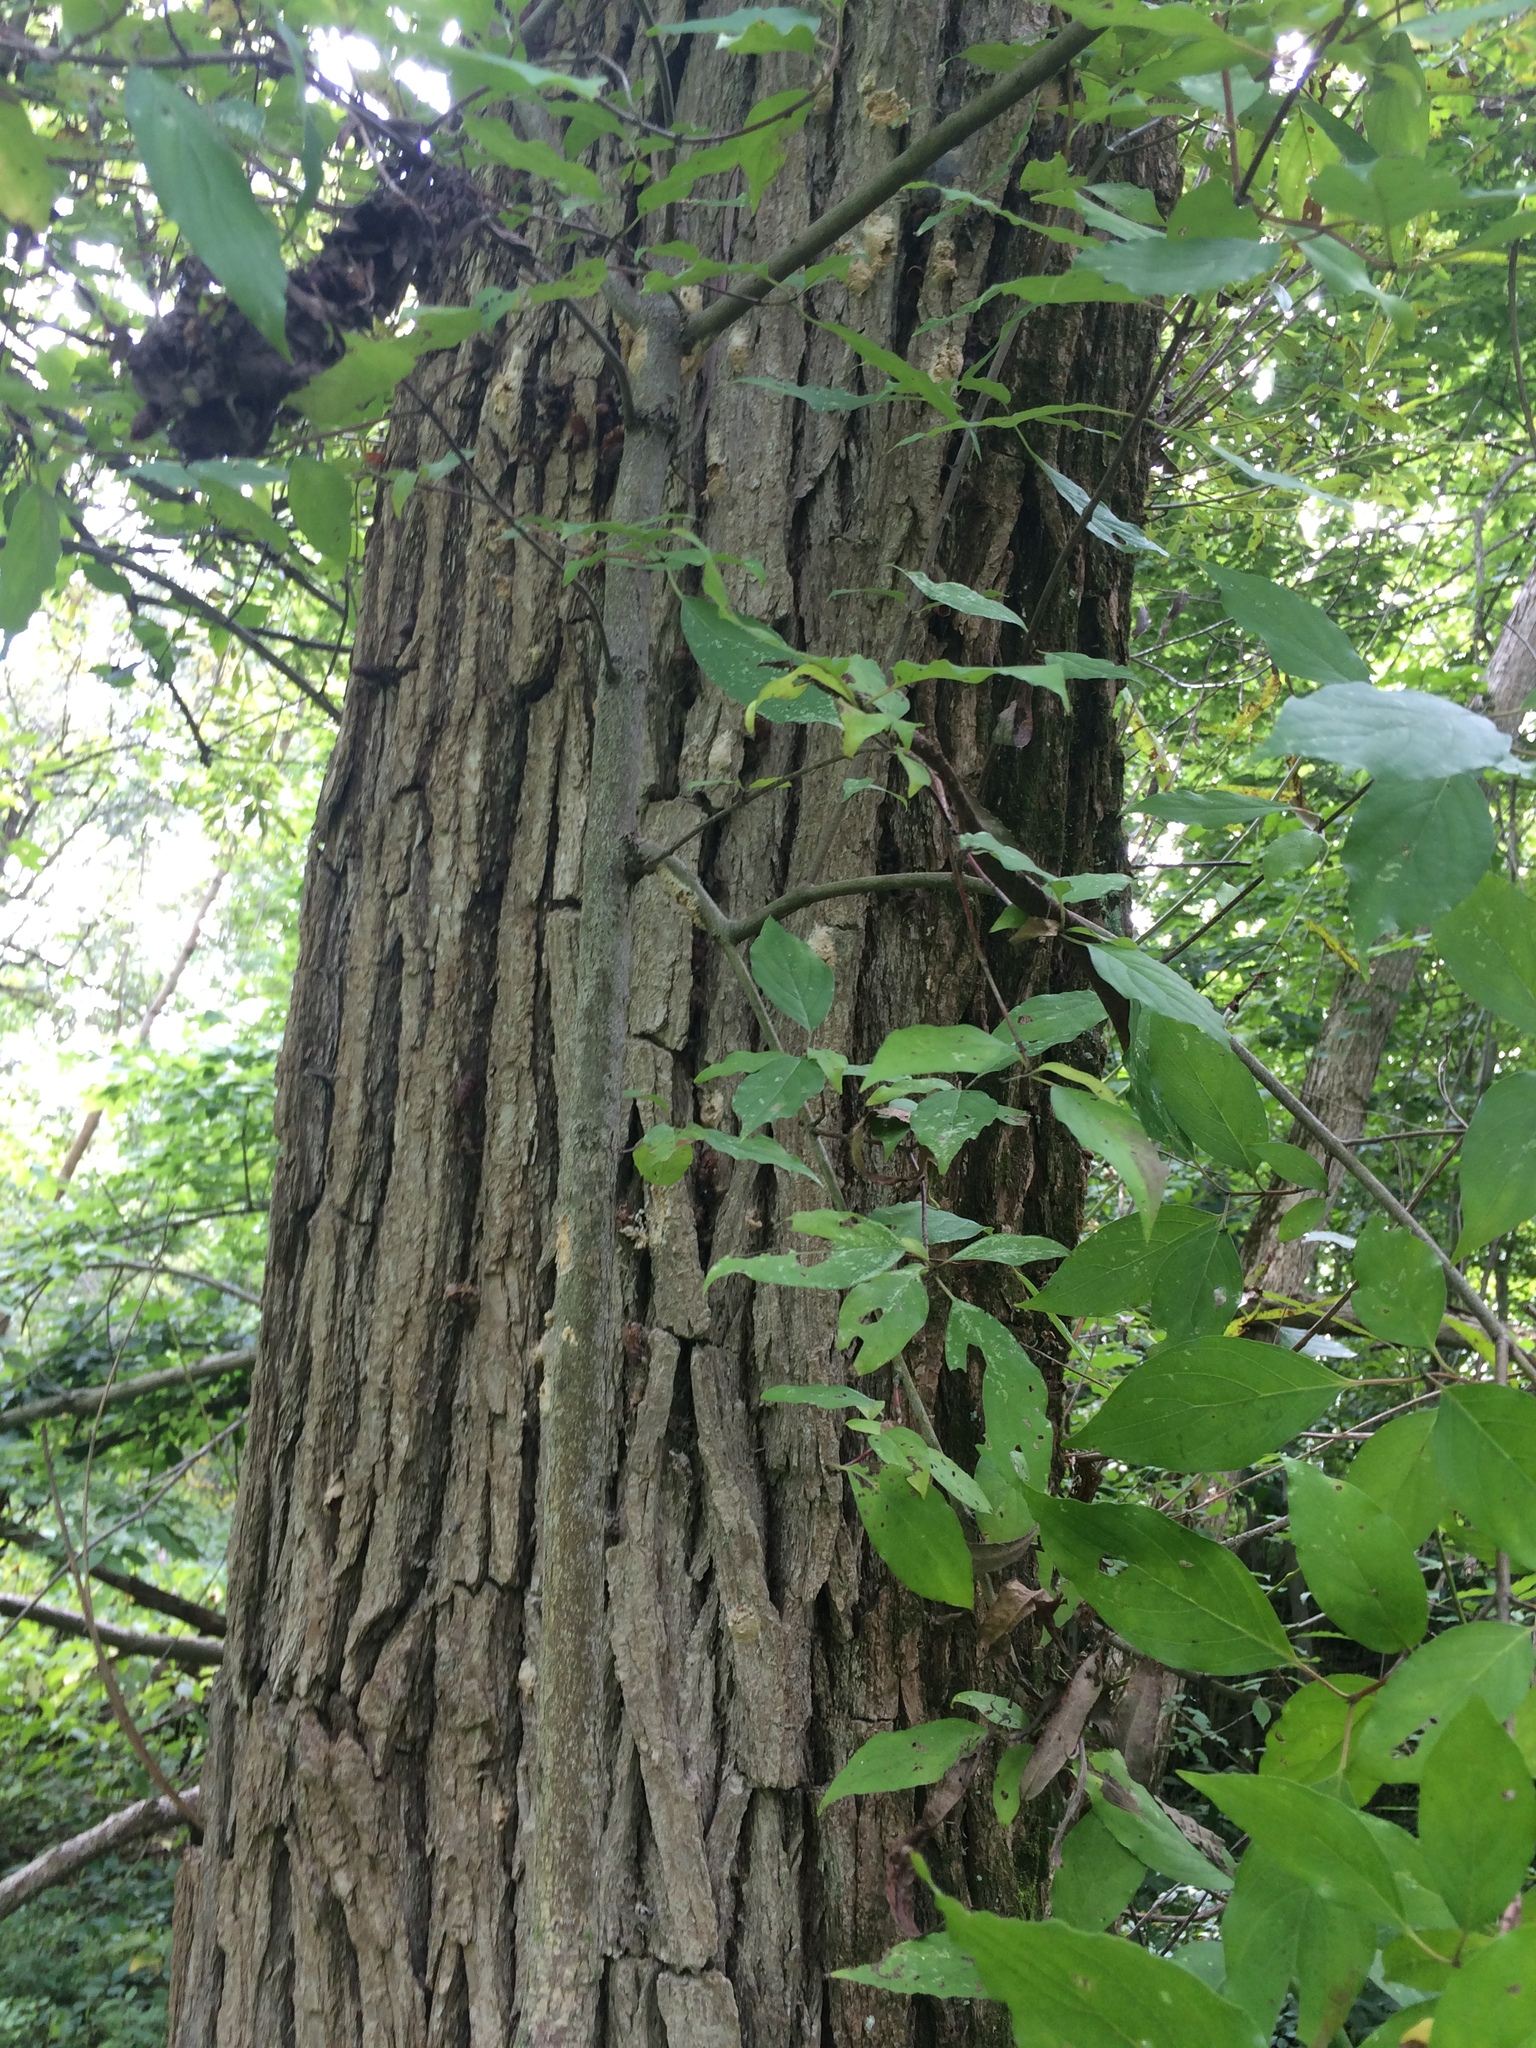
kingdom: Plantae
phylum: Tracheophyta
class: Magnoliopsida
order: Sapindales
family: Anacardiaceae
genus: Toxicodendron
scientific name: Toxicodendron radicans
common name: Poison ivy
